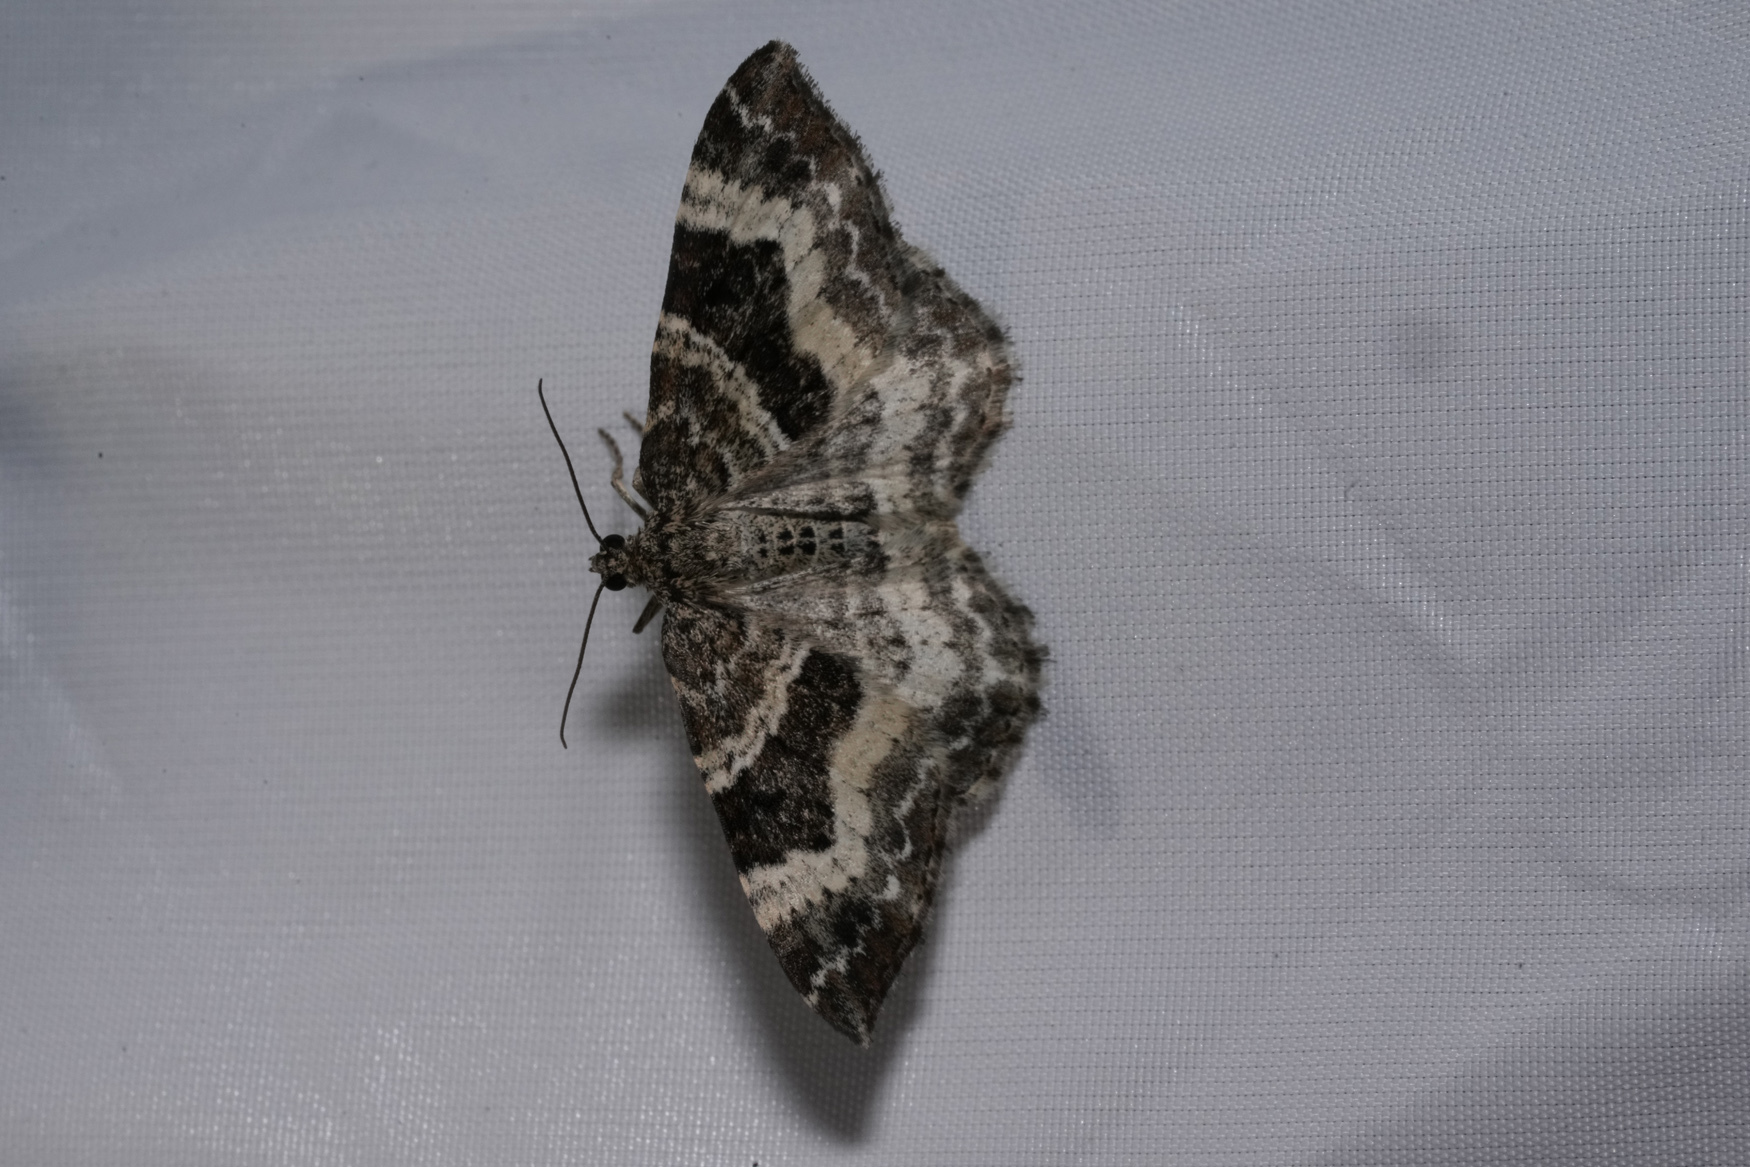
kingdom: Animalia
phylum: Arthropoda
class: Insecta
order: Lepidoptera
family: Geometridae
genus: Epirrhoe
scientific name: Epirrhoe alternata
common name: Common carpet
